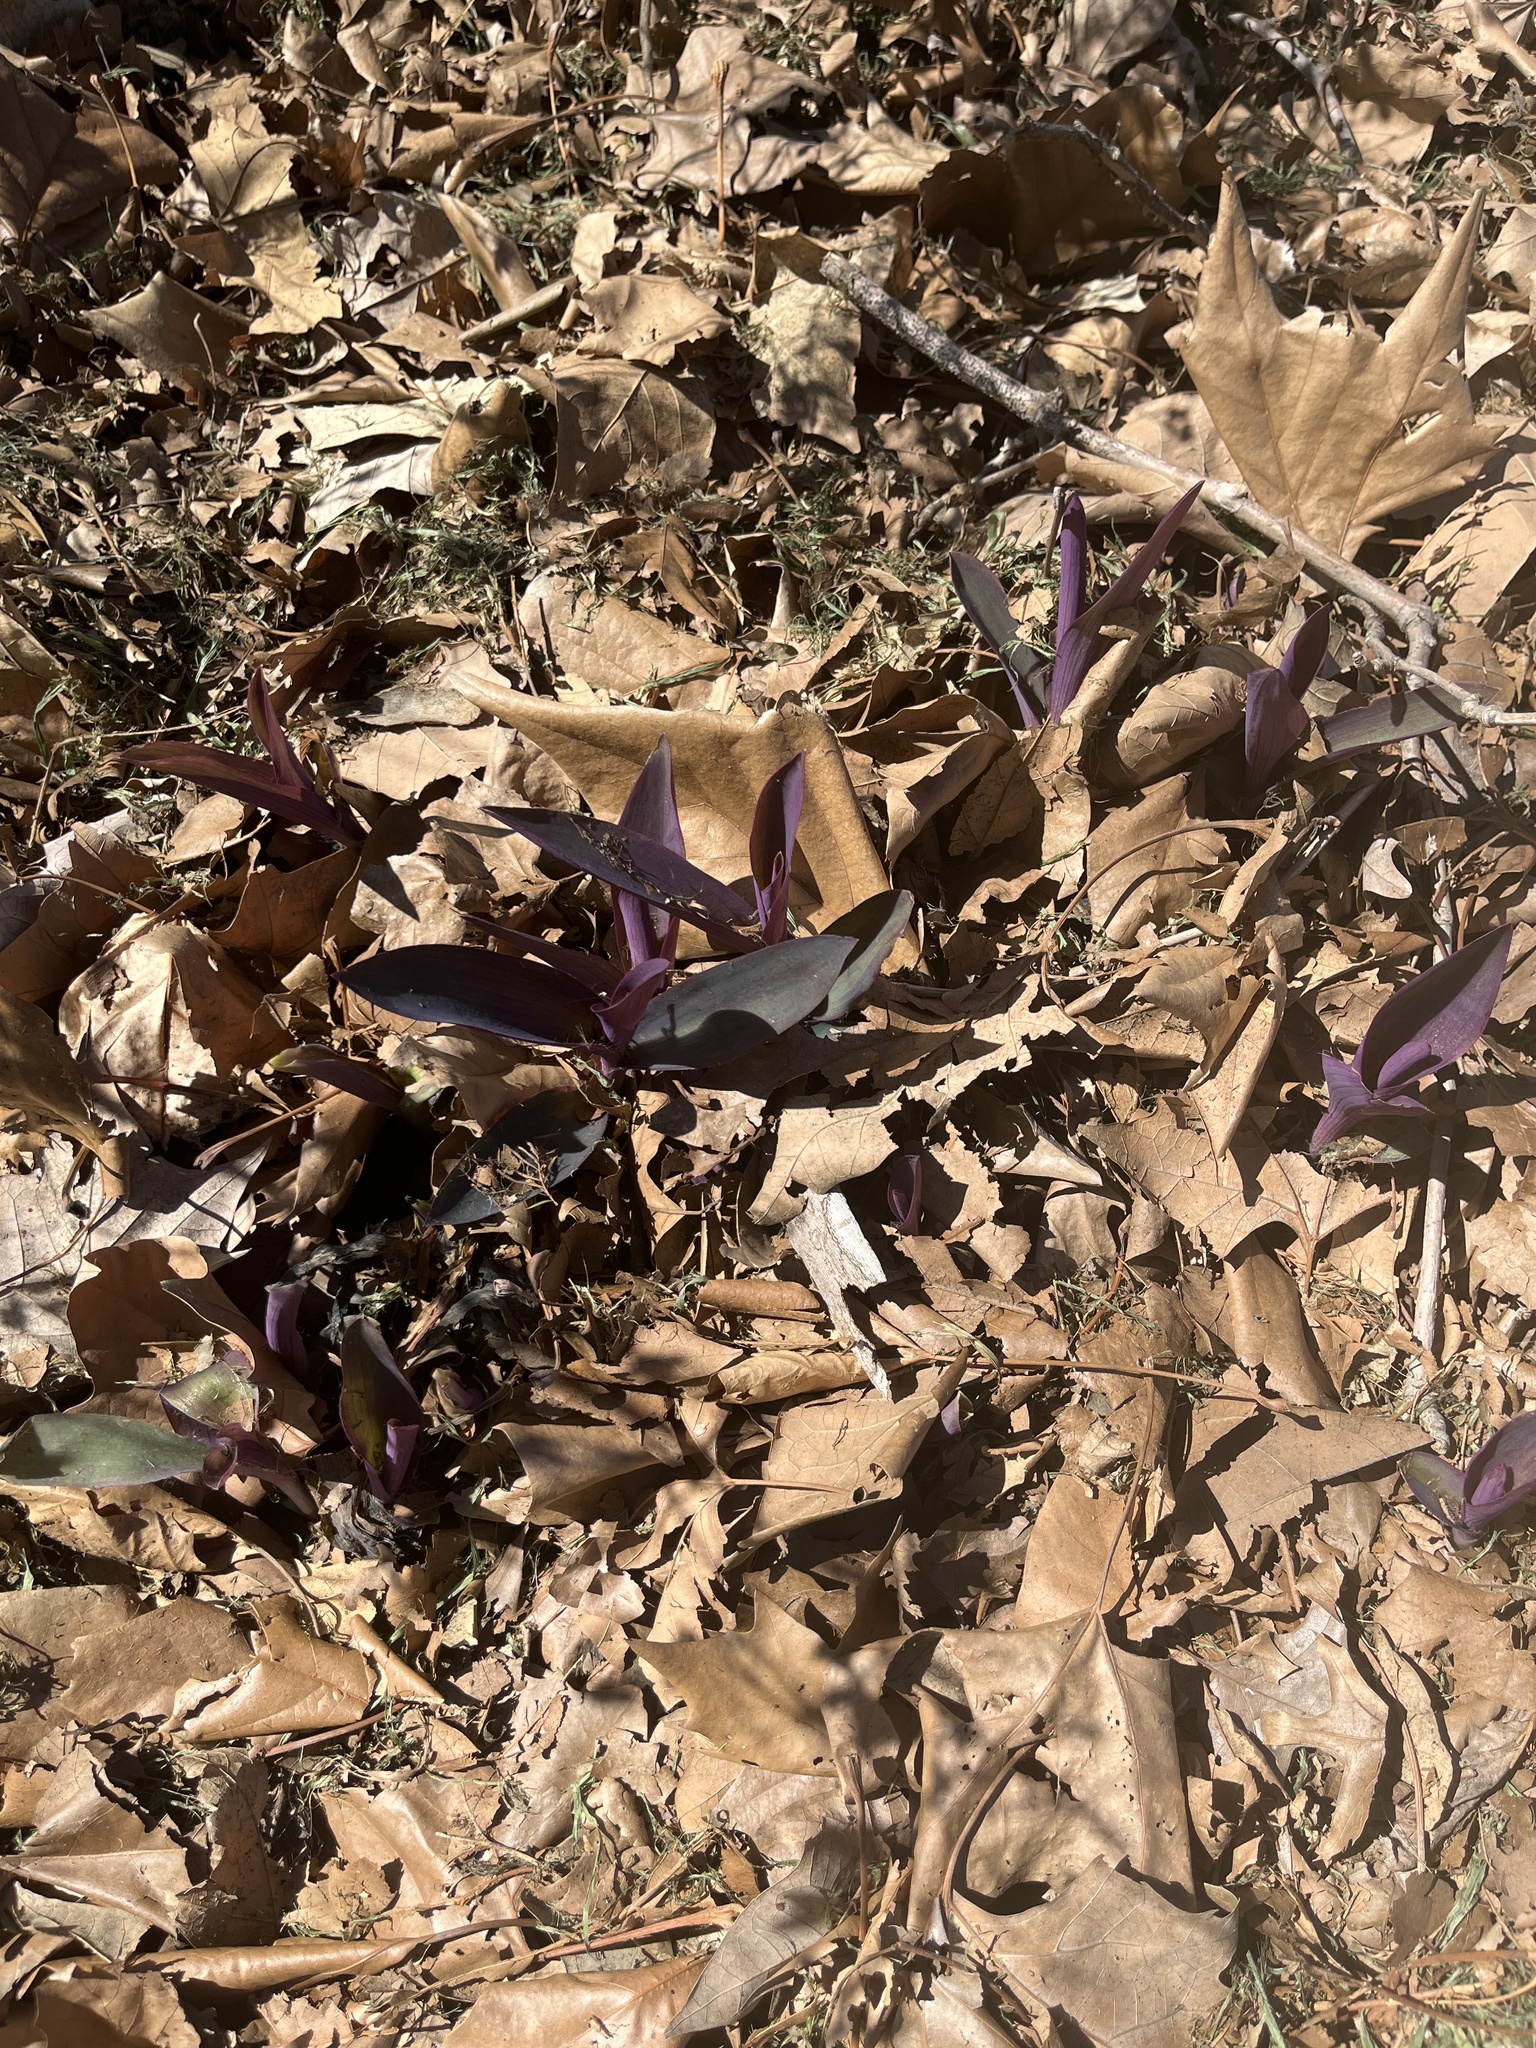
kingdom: Plantae
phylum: Tracheophyta
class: Liliopsida
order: Commelinales
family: Commelinaceae
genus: Tradescantia
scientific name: Tradescantia pallida
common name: Purpleheart
